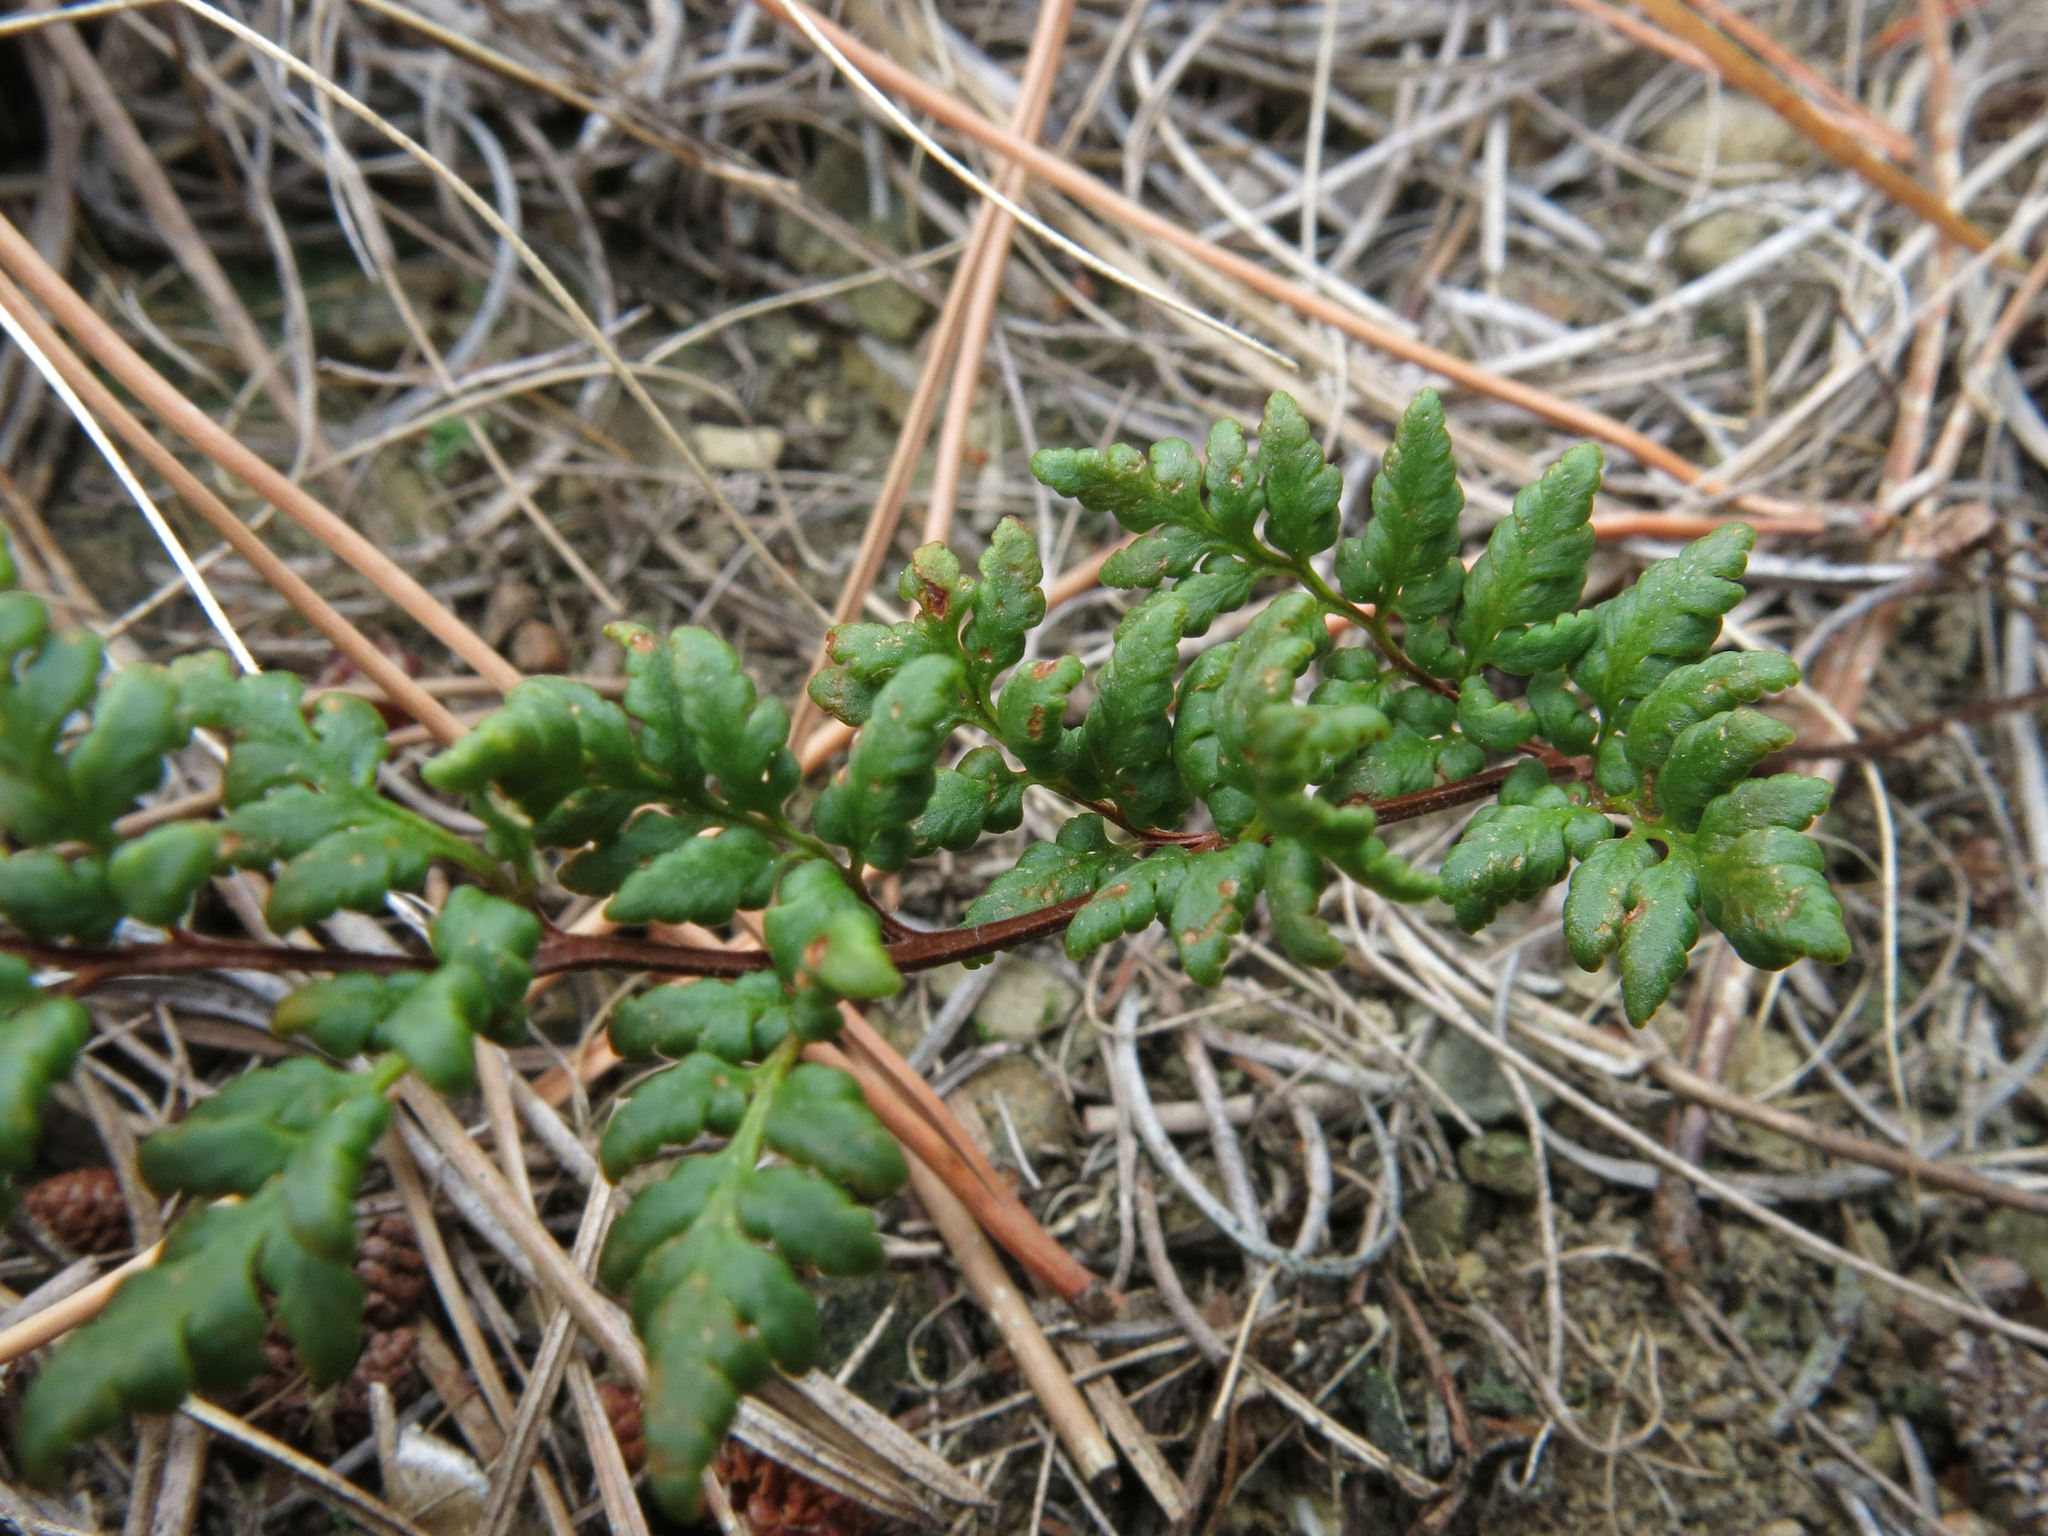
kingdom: Plantae
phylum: Tracheophyta
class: Polypodiopsida
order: Polypodiales
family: Pteridaceae
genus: Cheilanthes
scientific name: Cheilanthes sieberi
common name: Mulga fern
